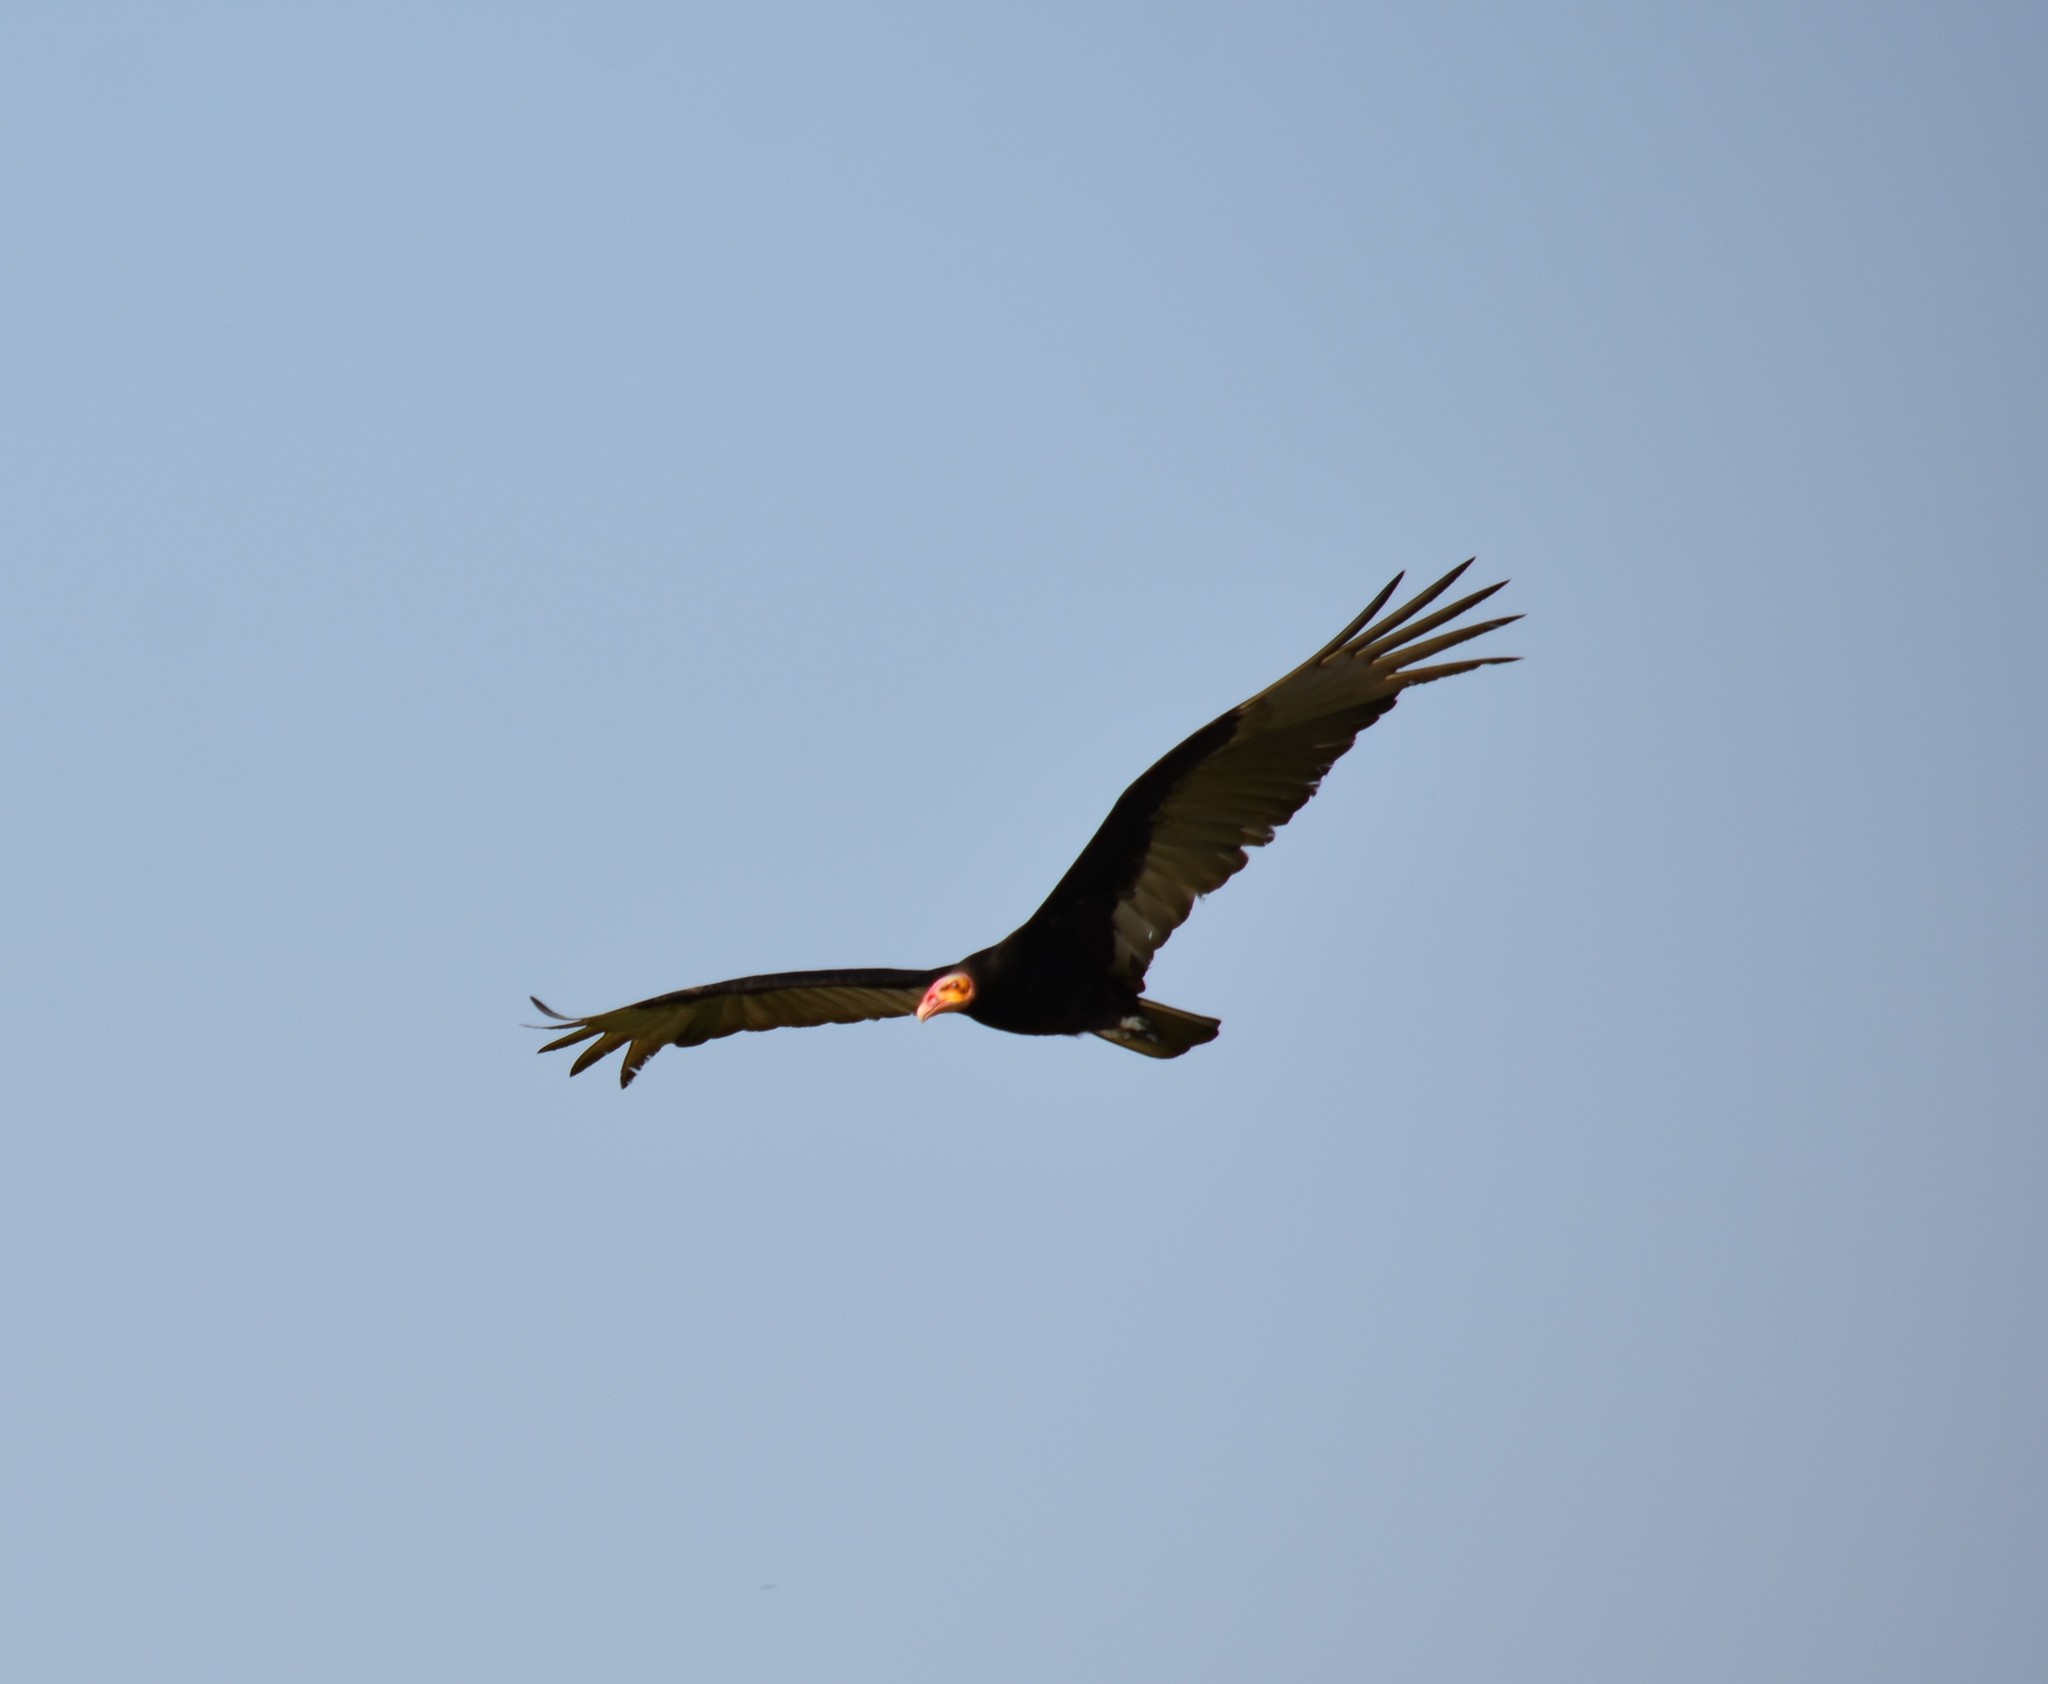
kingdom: Animalia
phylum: Chordata
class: Aves
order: Accipitriformes
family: Cathartidae
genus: Cathartes
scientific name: Cathartes melambrotus
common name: Greater yellow-headed vulture
